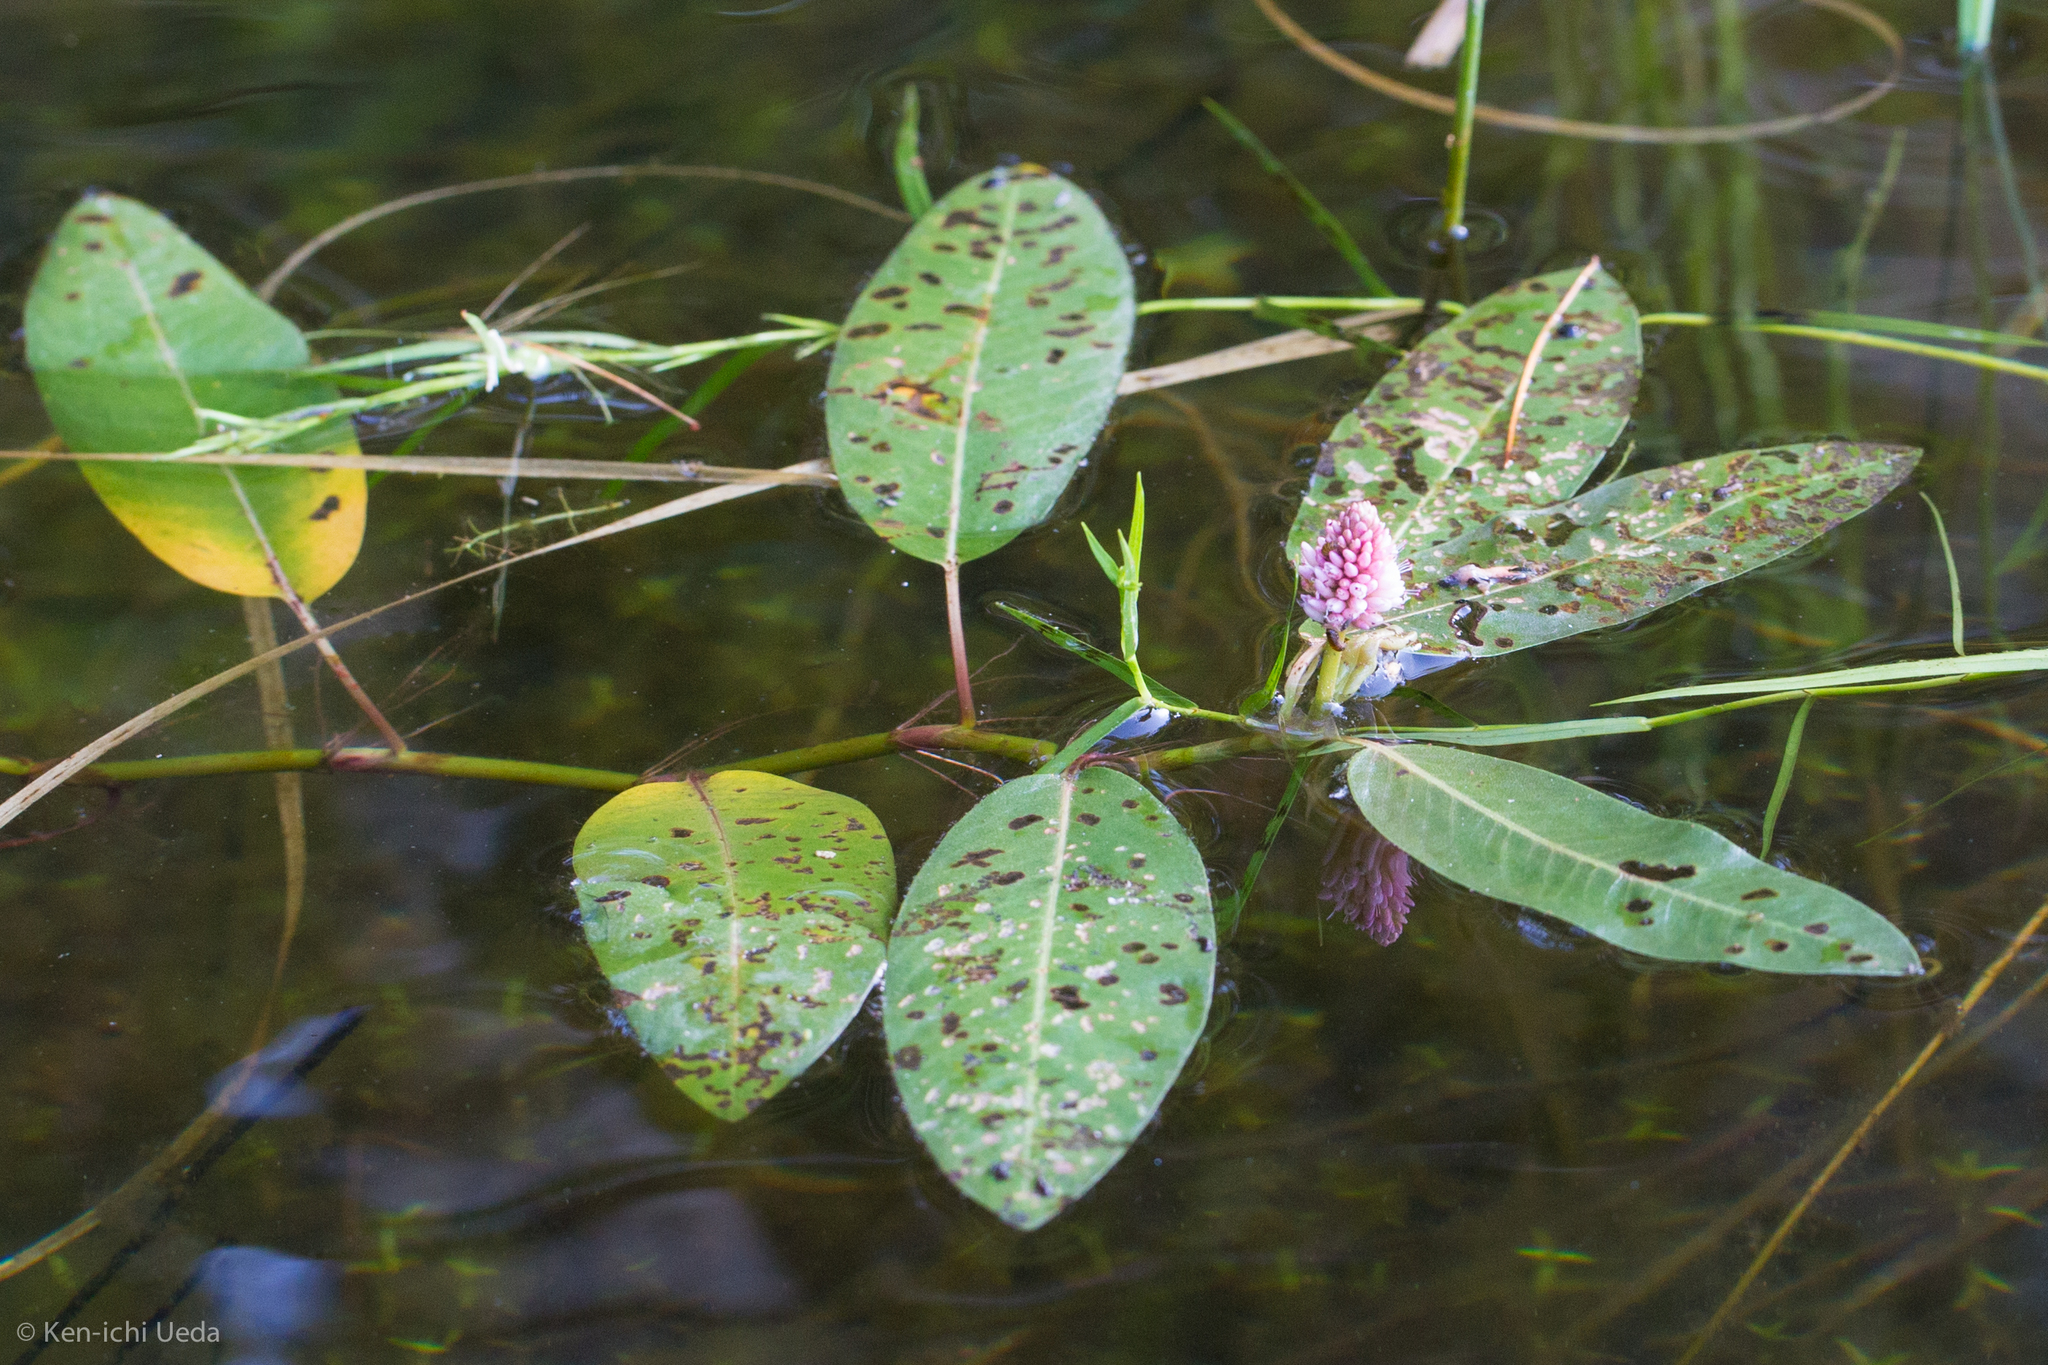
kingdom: Plantae
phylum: Tracheophyta
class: Magnoliopsida
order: Caryophyllales
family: Polygonaceae
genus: Persicaria
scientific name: Persicaria amphibia
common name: Amphibious bistort
